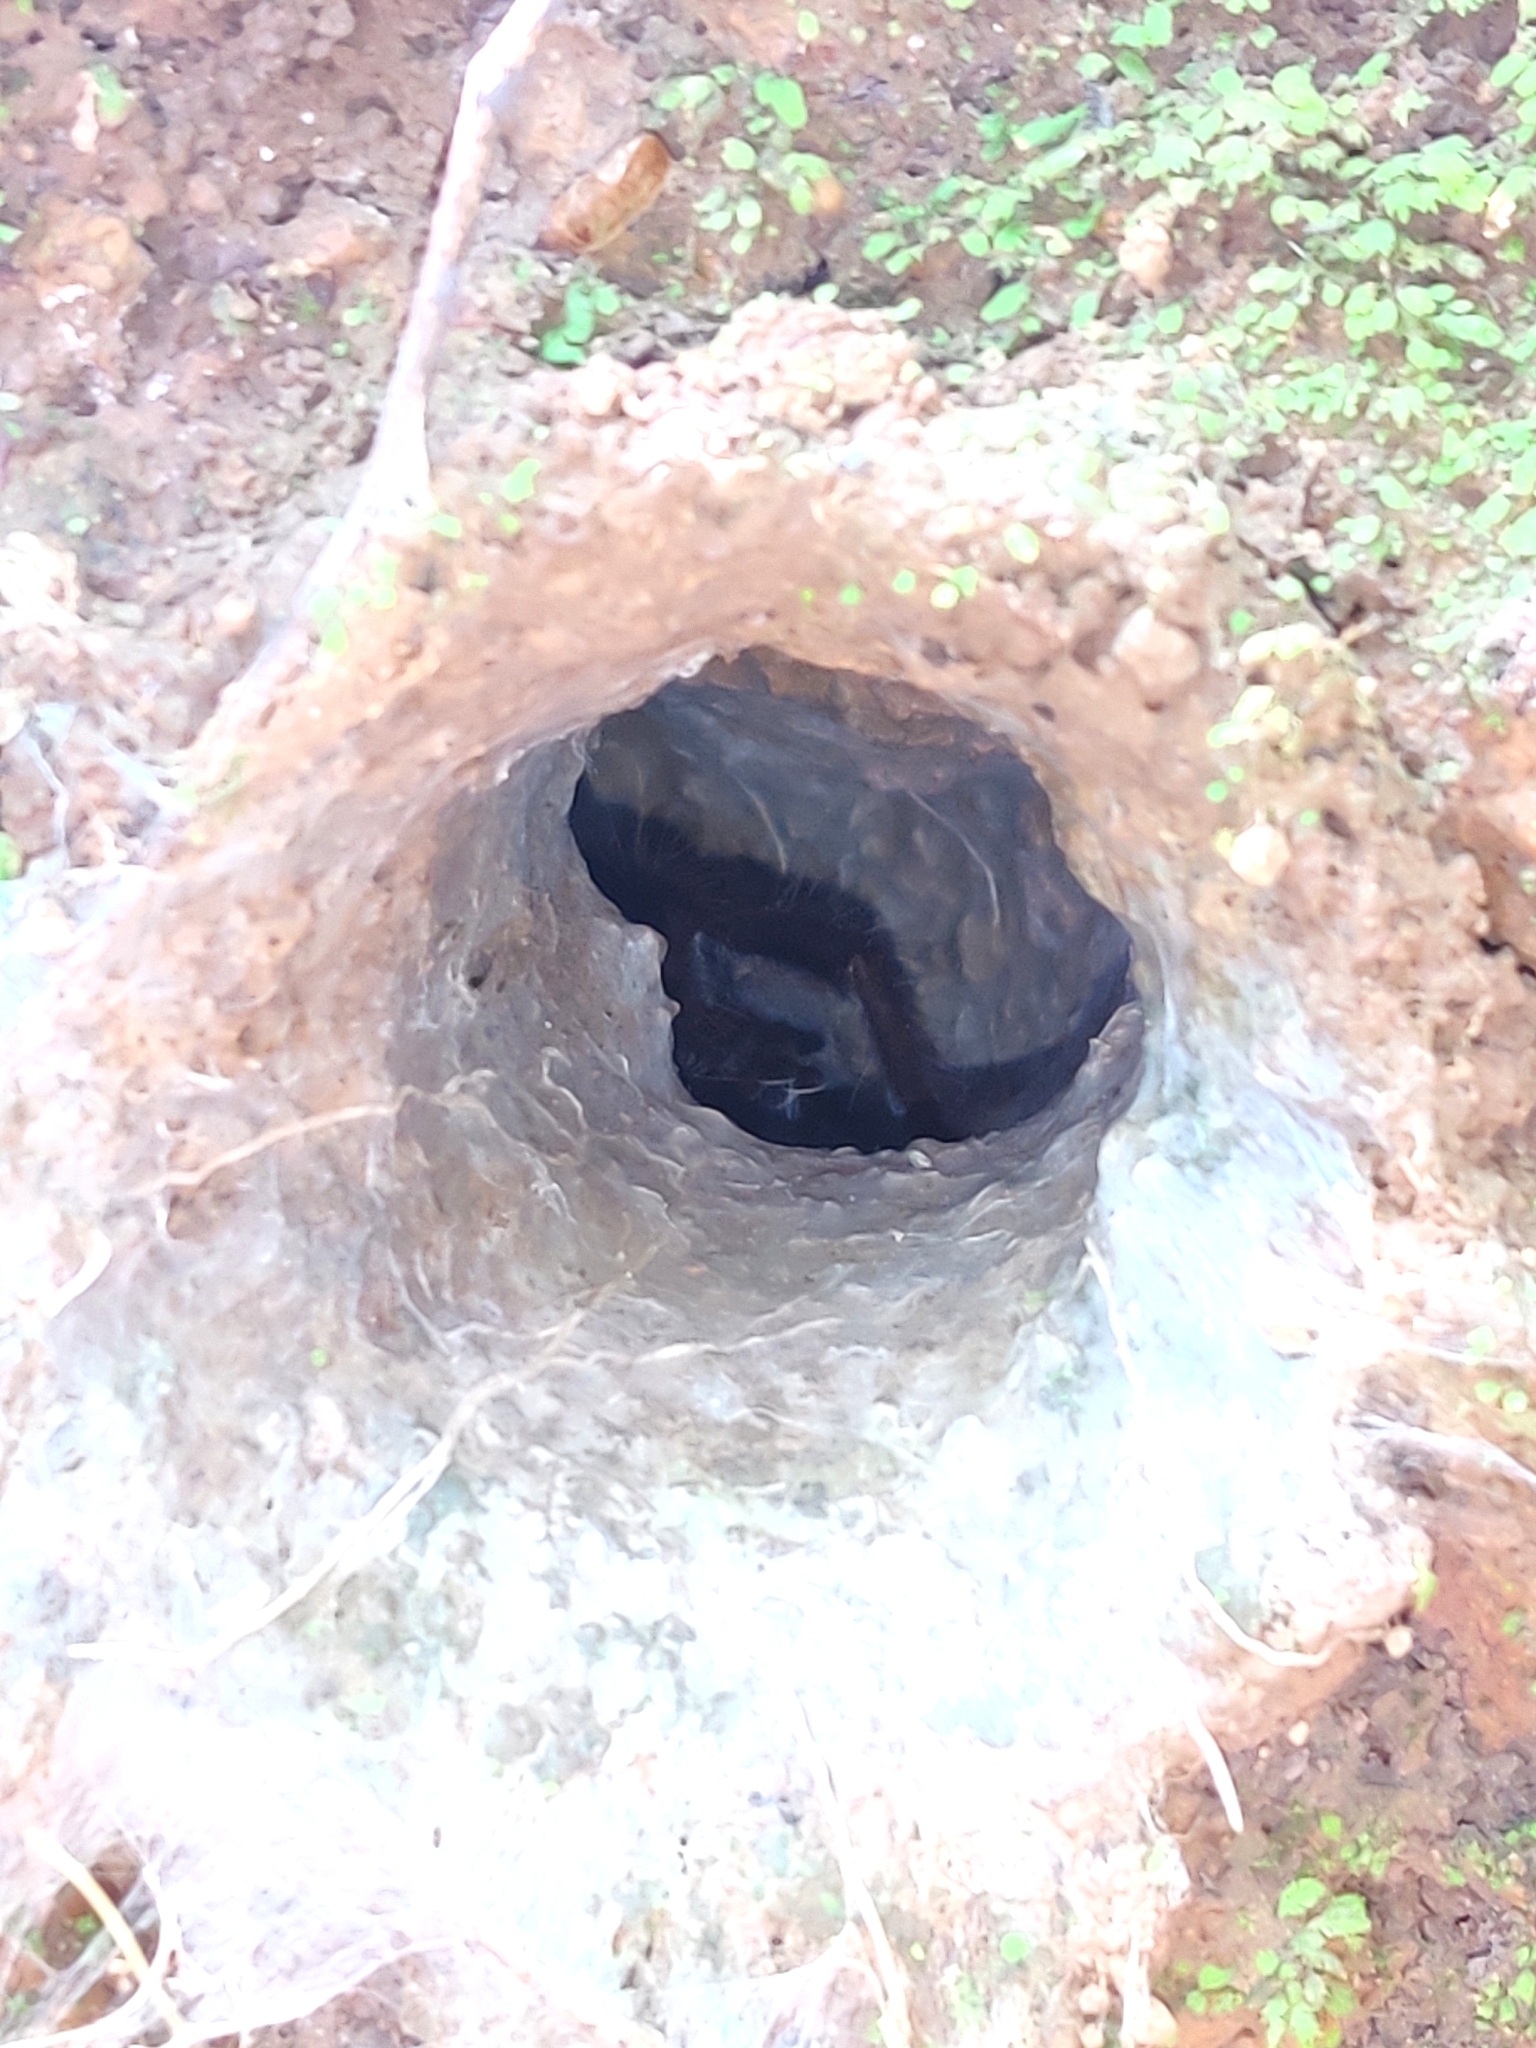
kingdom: Animalia
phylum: Arthropoda
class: Arachnida
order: Araneae
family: Theraphosidae
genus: Thrigmopoeus
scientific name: Thrigmopoeus truculentus
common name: Karwar large burrowing spider
